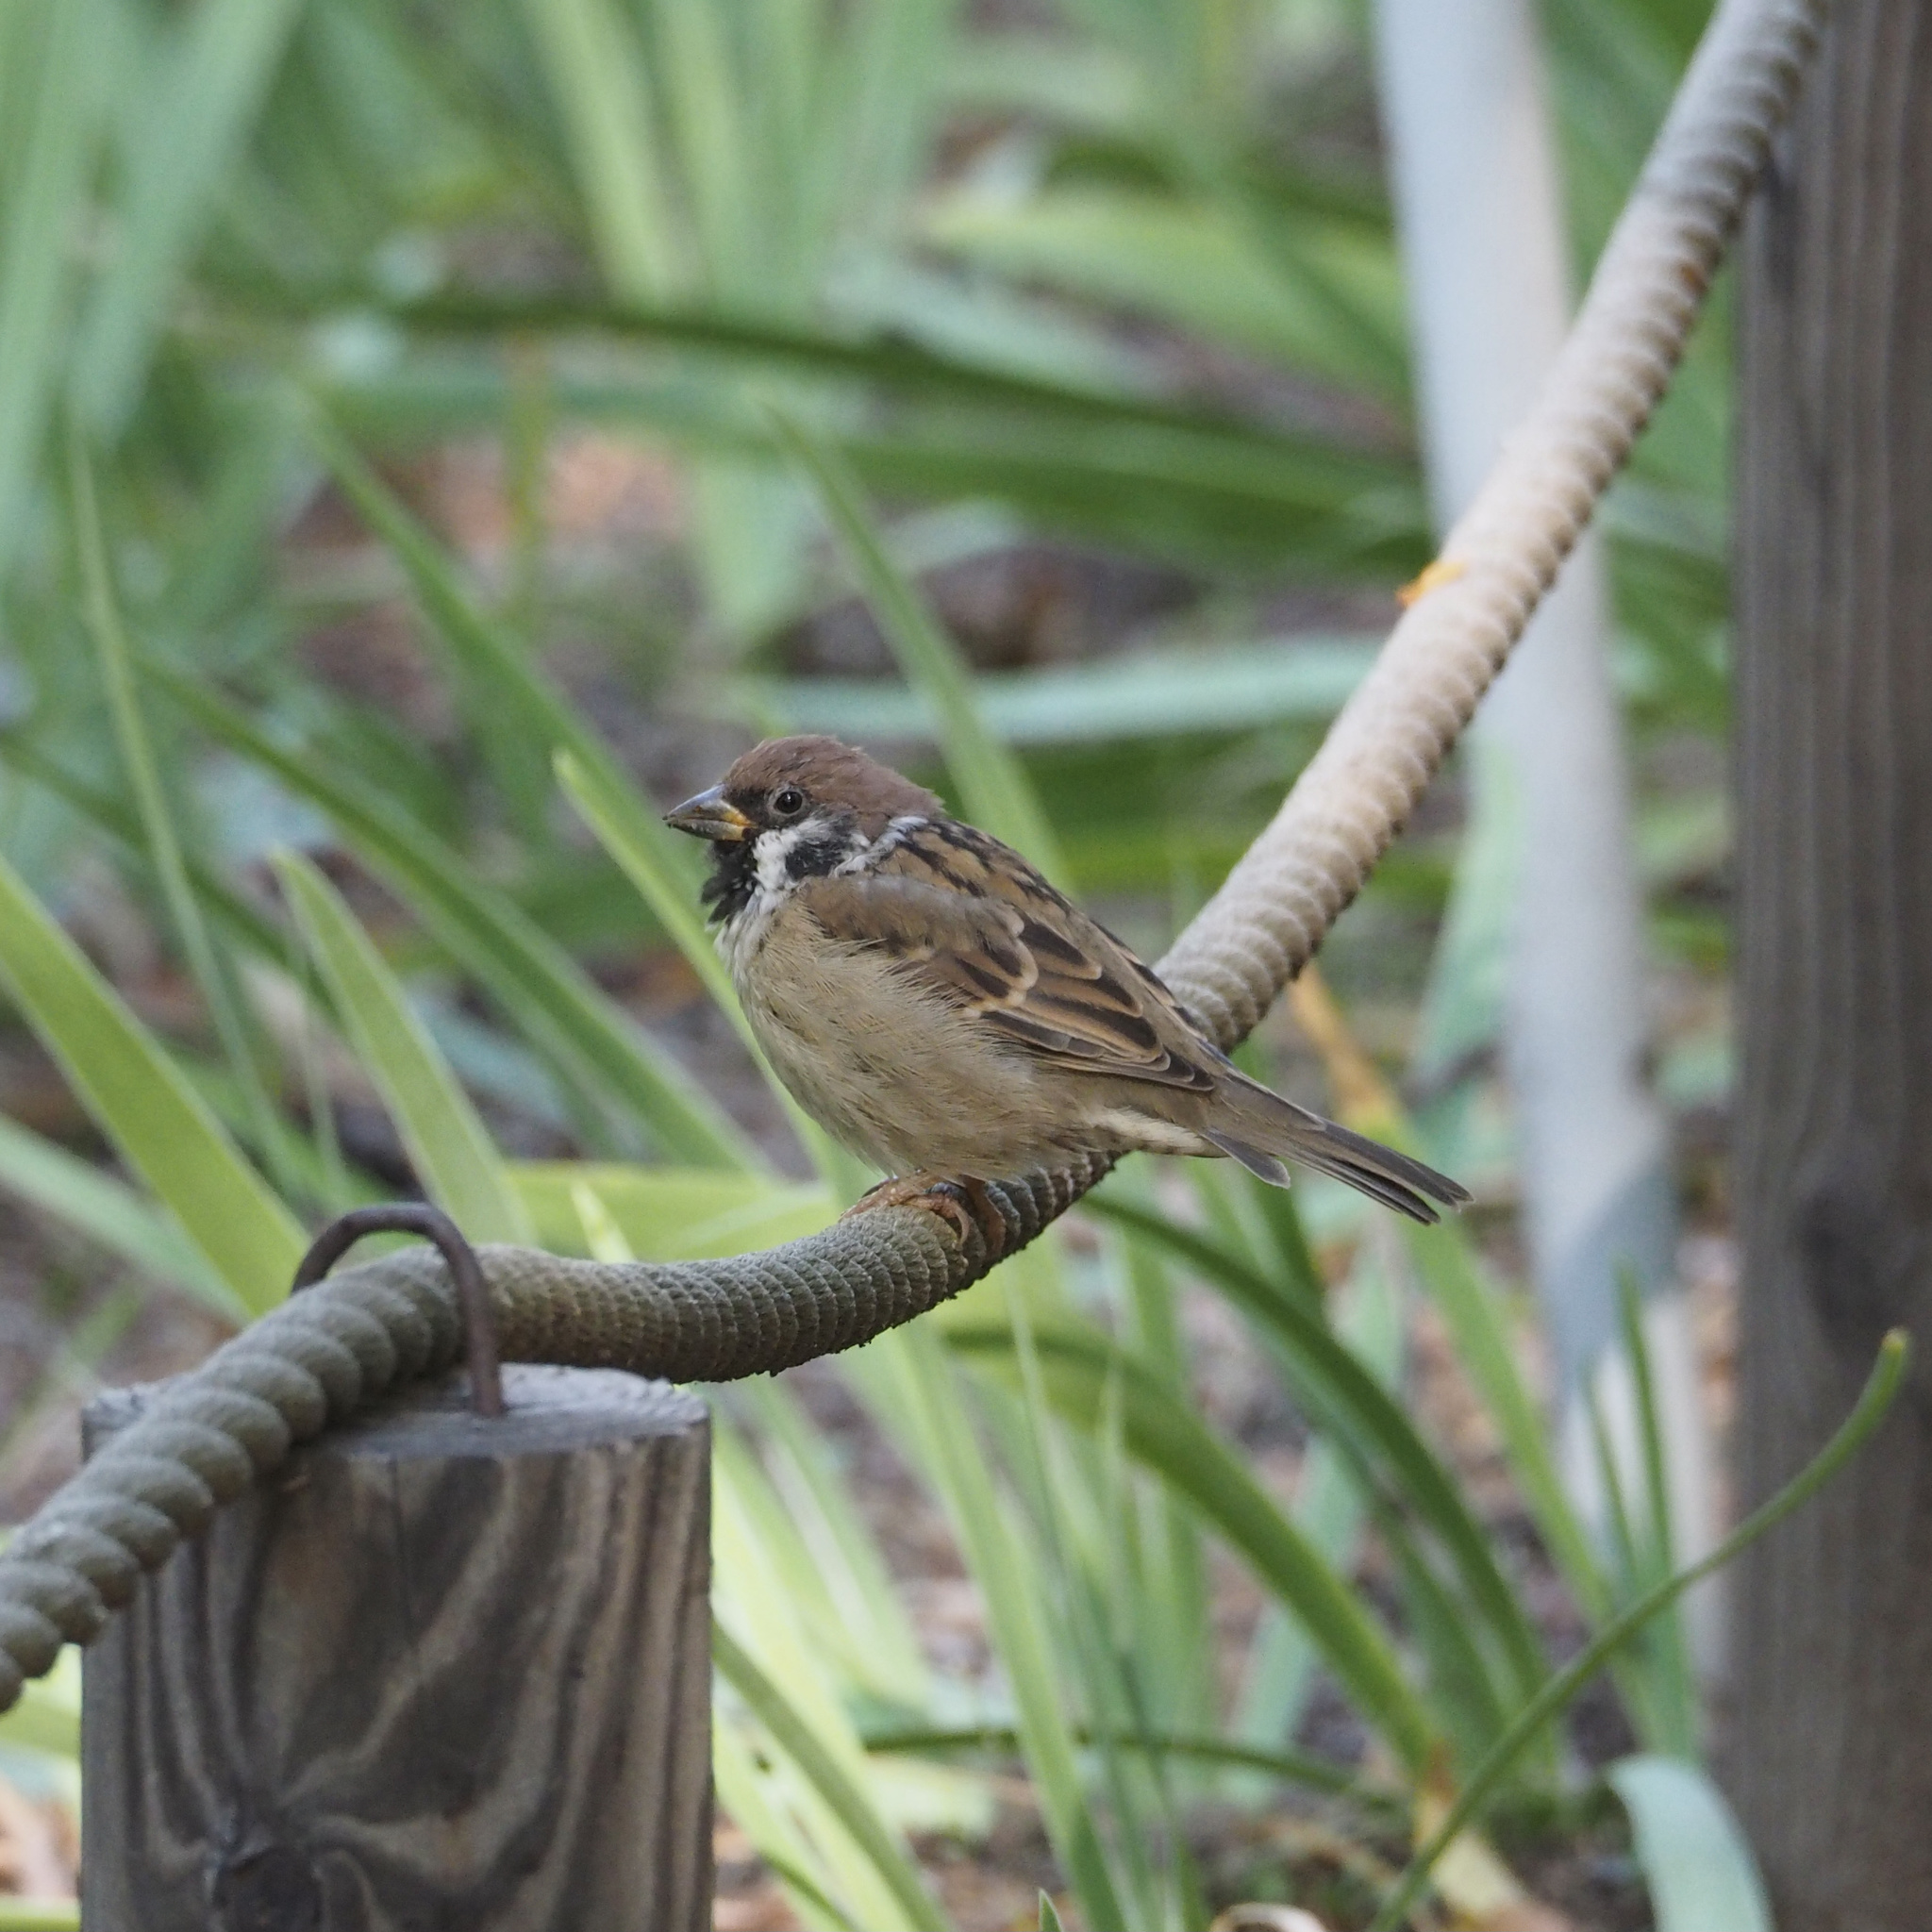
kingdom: Animalia
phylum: Chordata
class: Aves
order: Passeriformes
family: Passeridae
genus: Passer
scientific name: Passer montanus
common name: Eurasian tree sparrow
